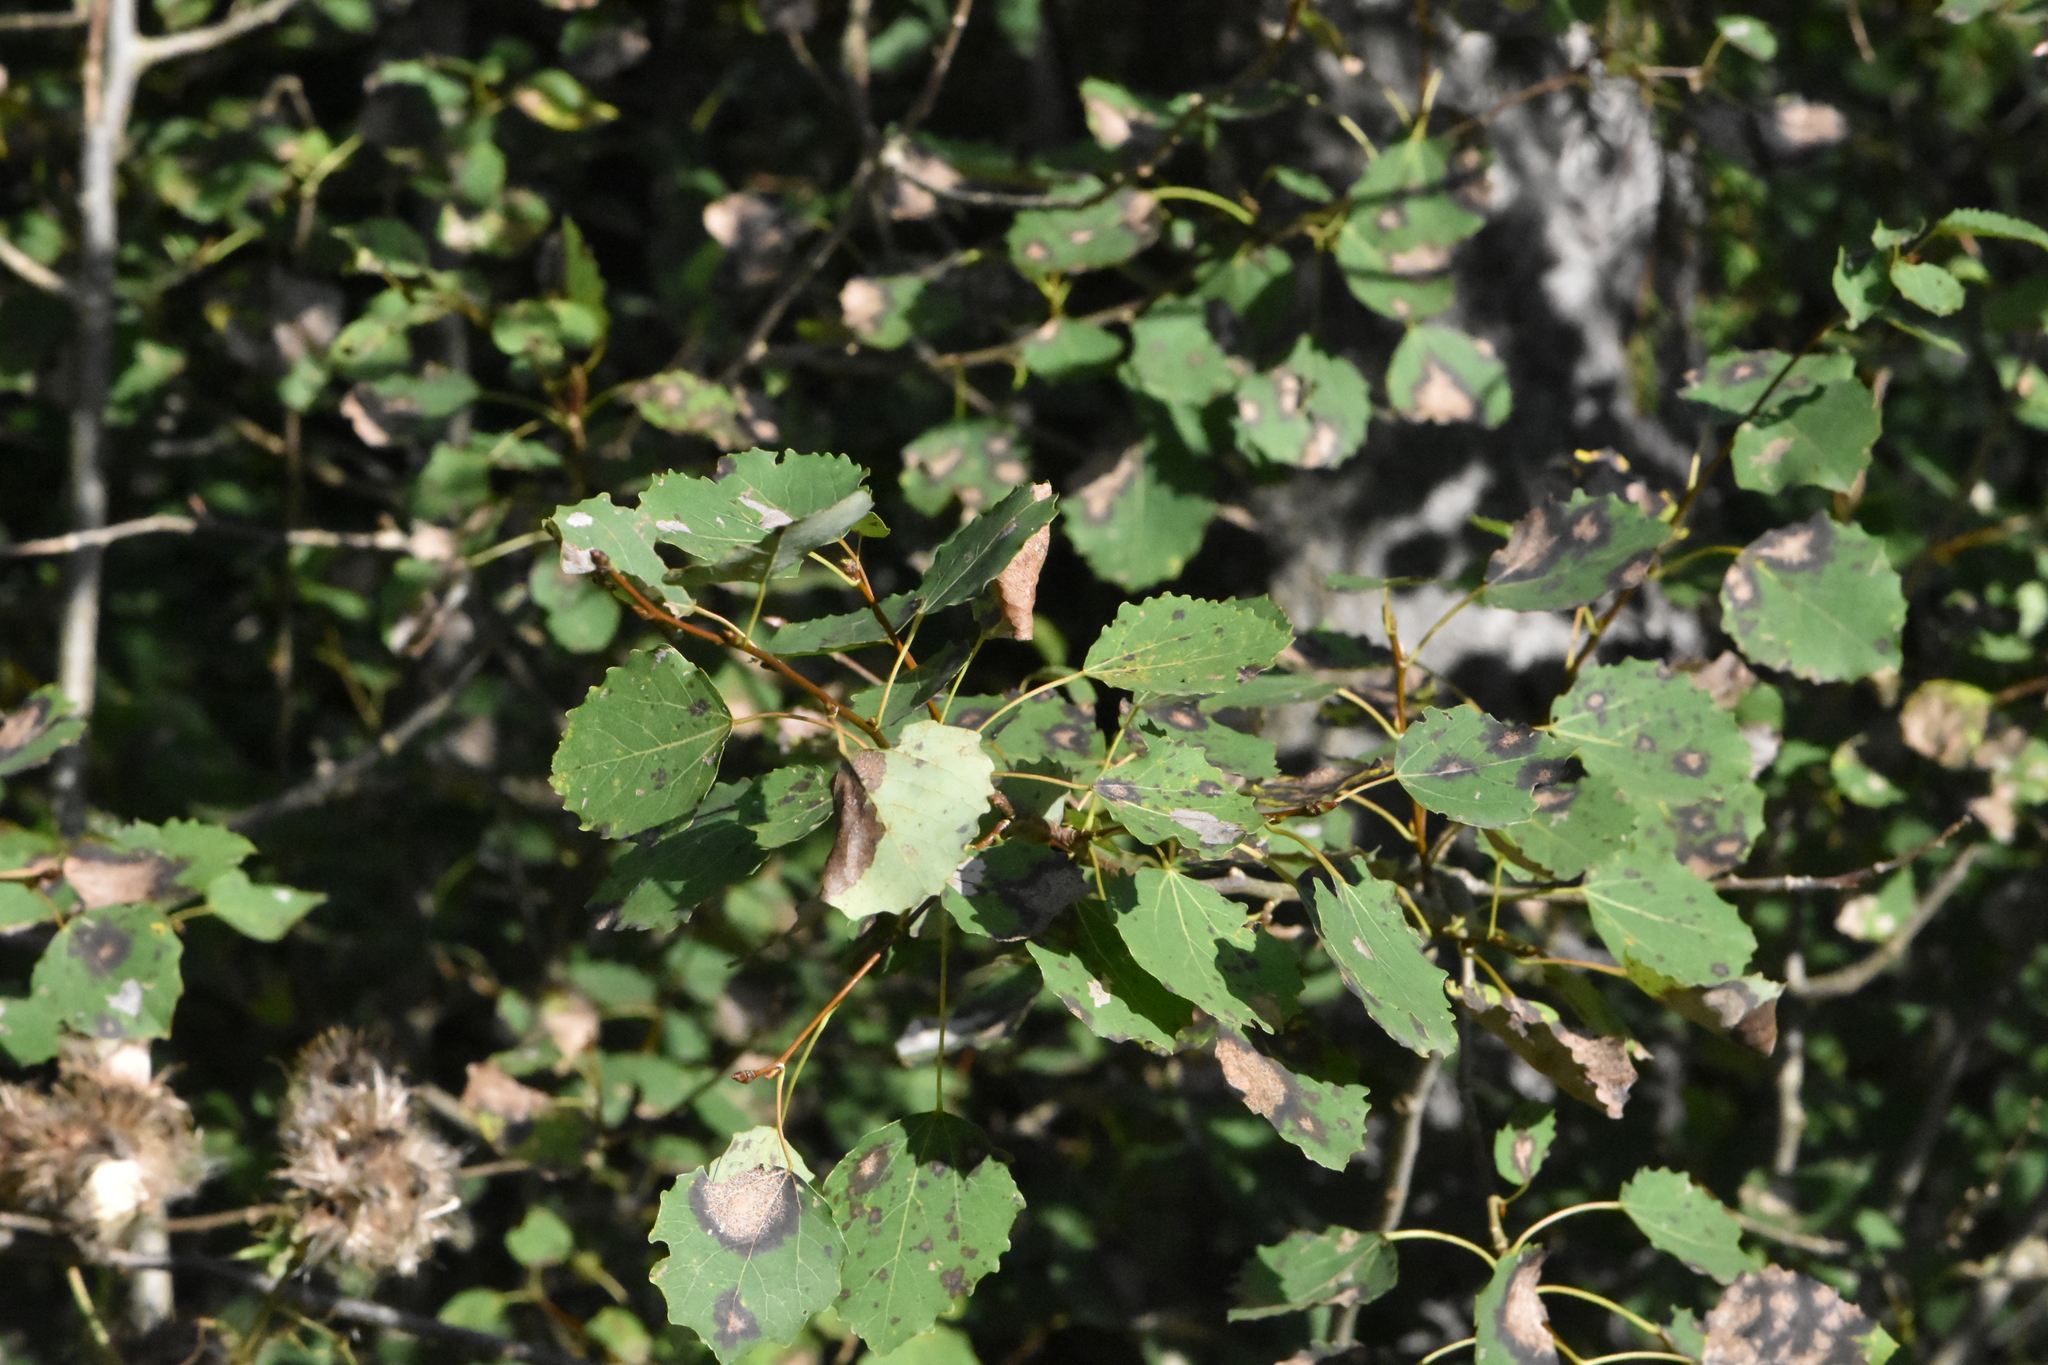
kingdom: Plantae
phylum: Tracheophyta
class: Magnoliopsida
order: Malpighiales
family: Salicaceae
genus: Populus
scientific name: Populus tremula
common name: European aspen
